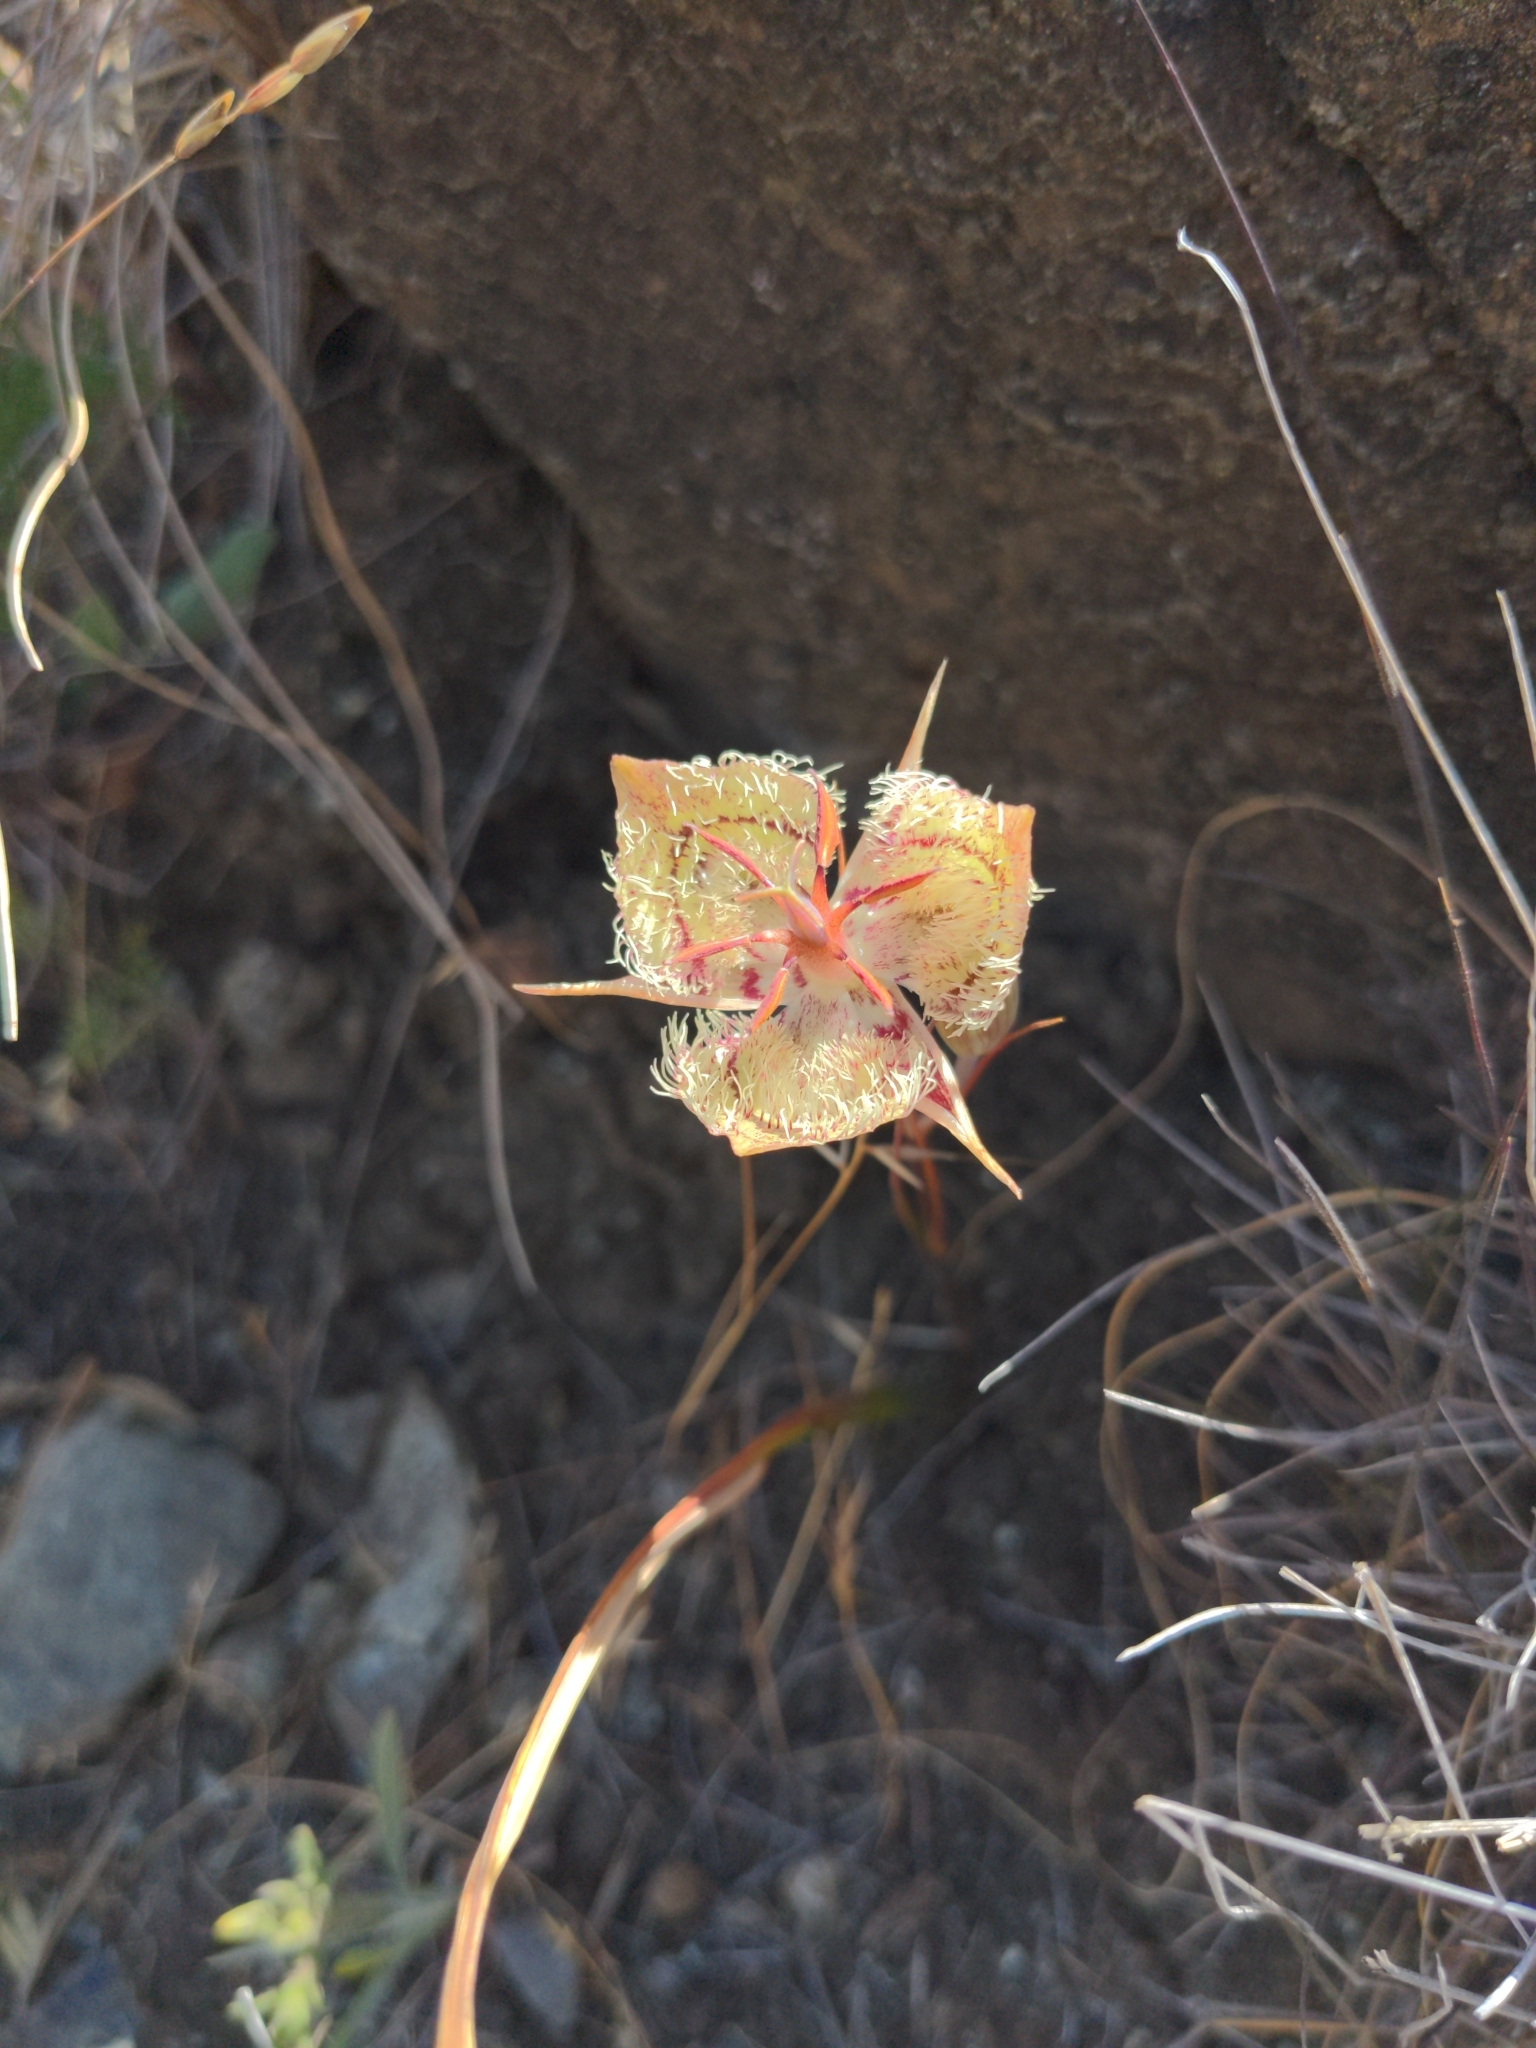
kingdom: Plantae
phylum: Tracheophyta
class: Liliopsida
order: Liliales
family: Liliaceae
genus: Calochortus
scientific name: Calochortus tiburonensis
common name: Tiburon mariposa-lily
